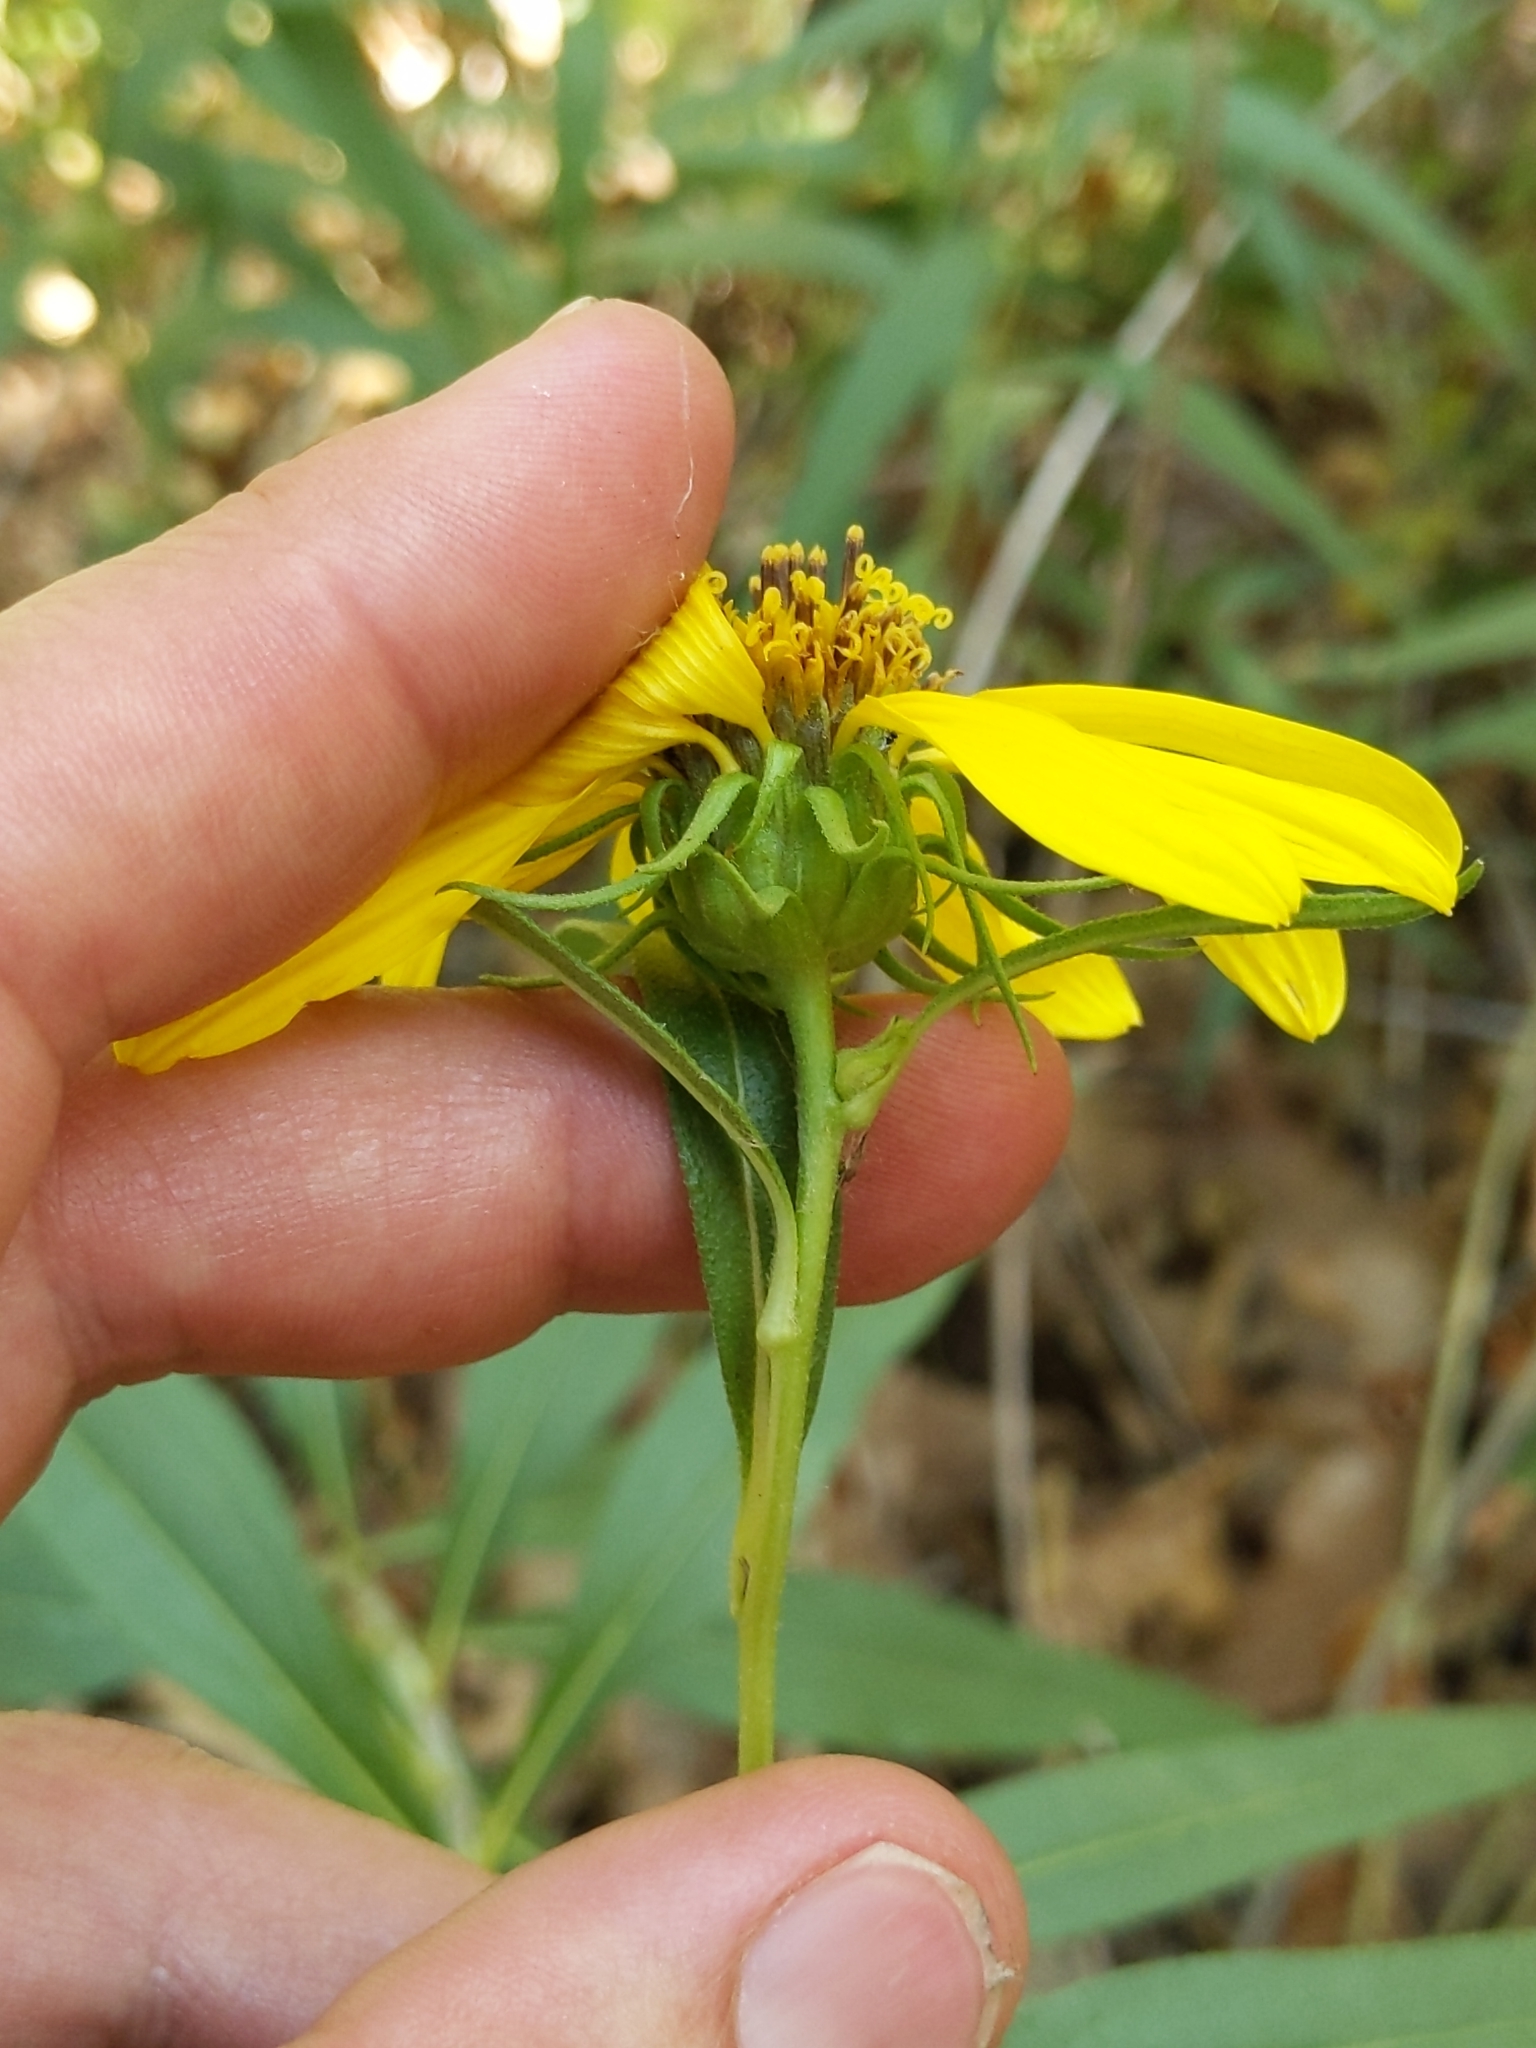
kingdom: Plantae
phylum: Tracheophyta
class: Magnoliopsida
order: Asterales
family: Asteraceae
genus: Helianthus
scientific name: Helianthus californicus
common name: California sunflower
